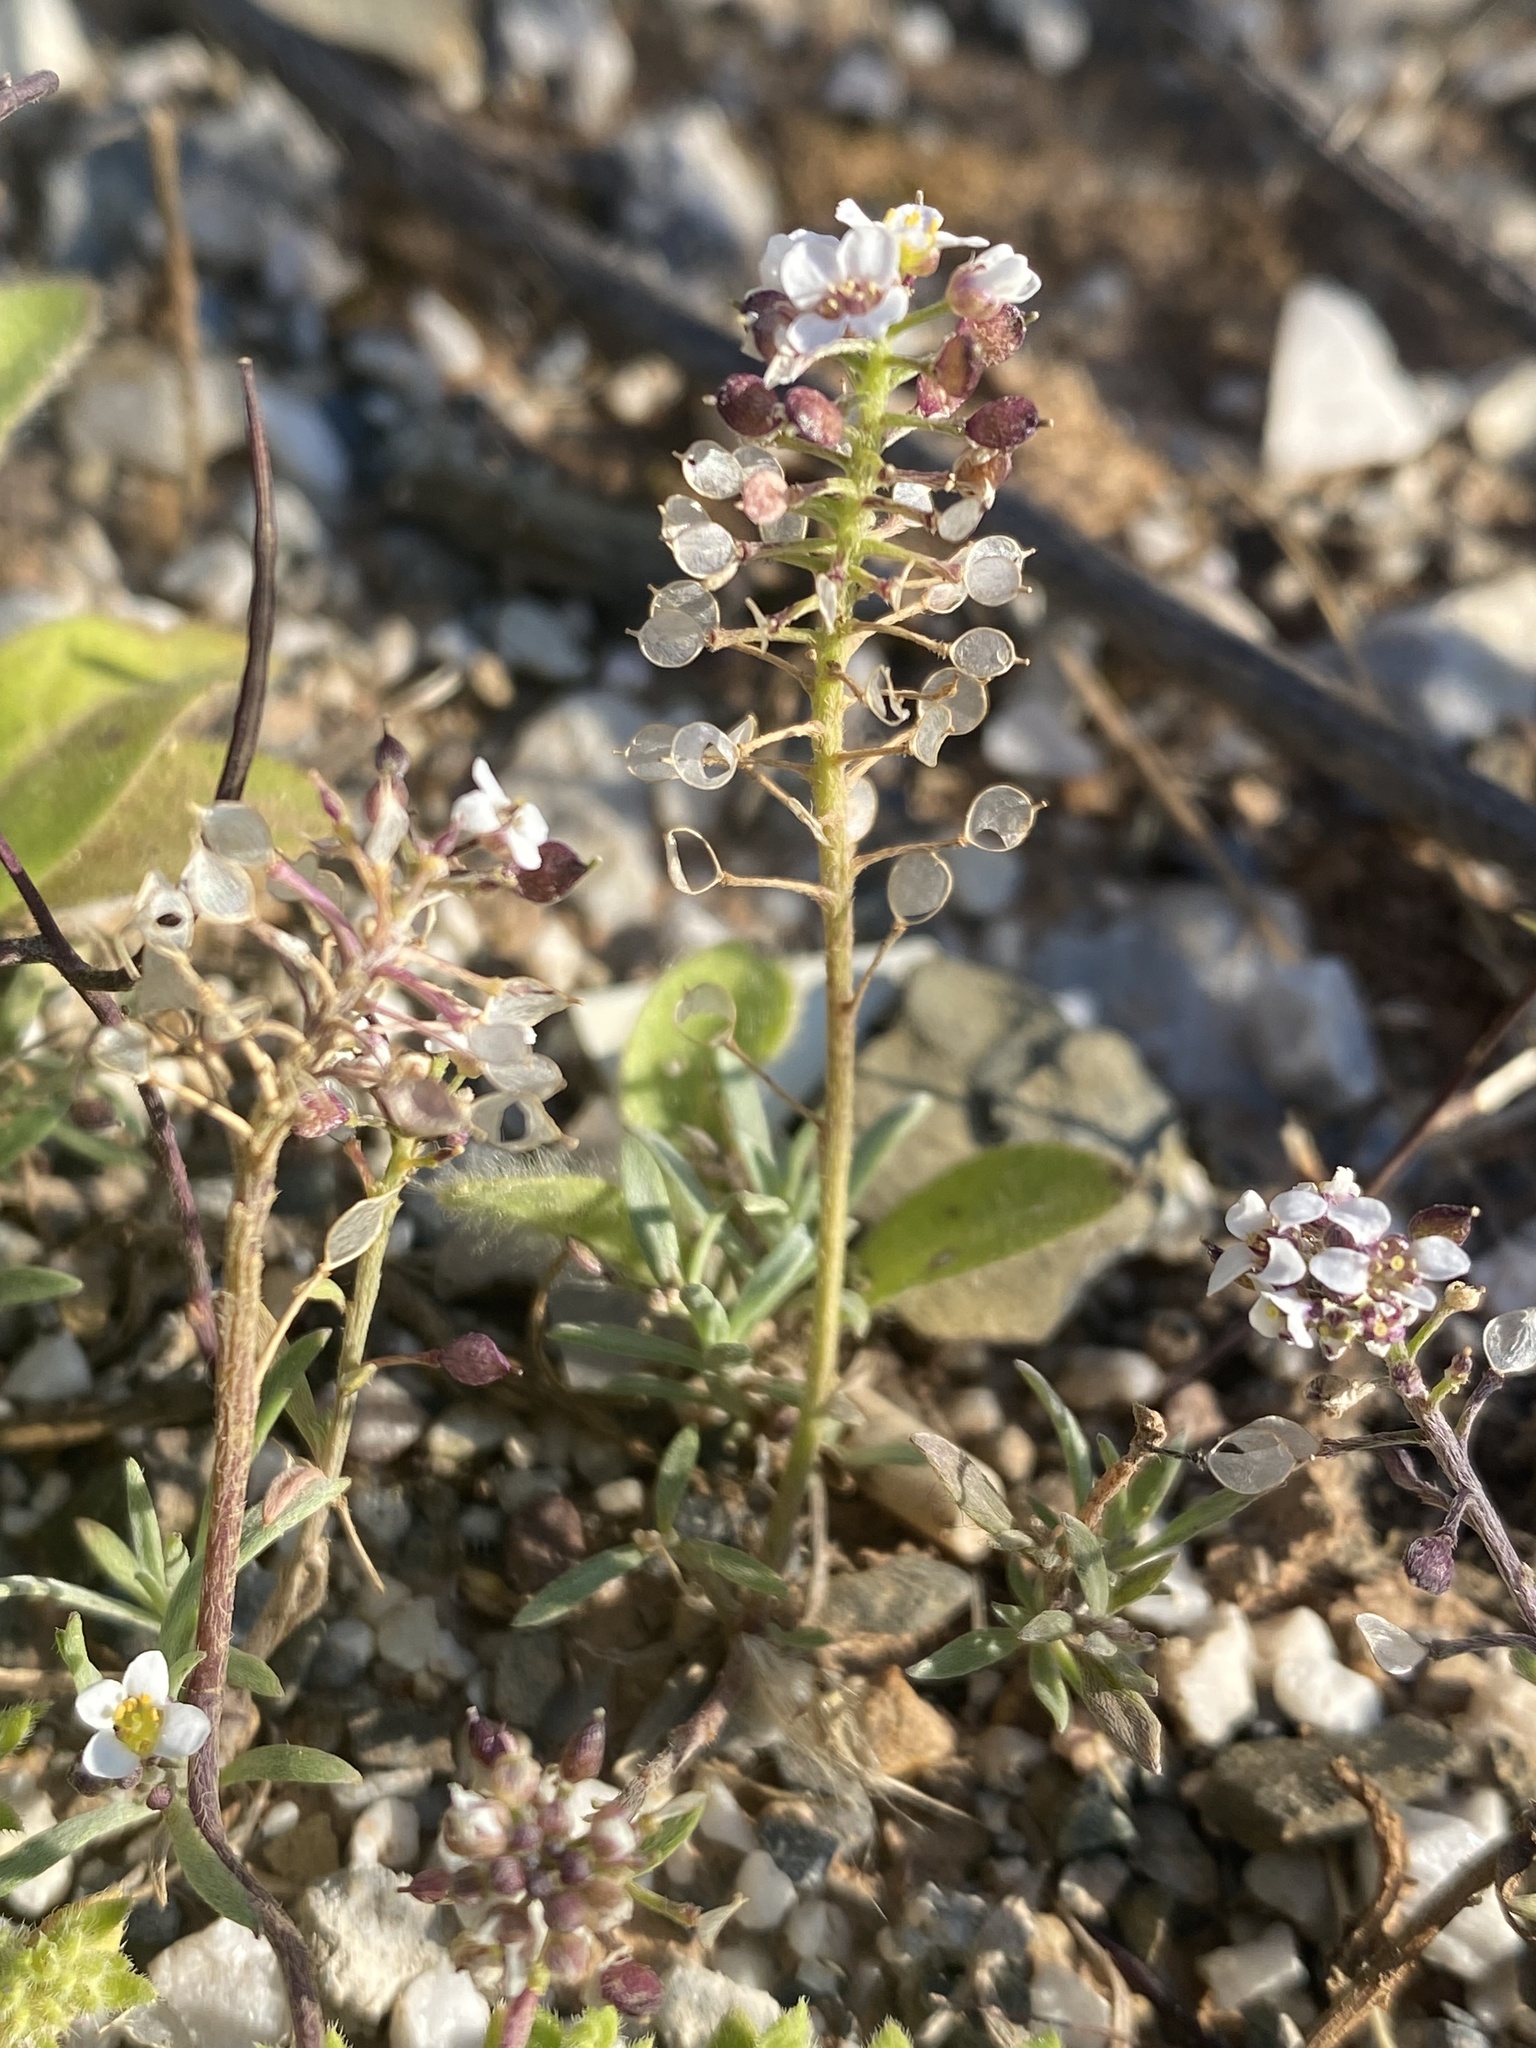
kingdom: Plantae
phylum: Tracheophyta
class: Magnoliopsida
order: Brassicales
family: Brassicaceae
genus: Lobularia
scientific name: Lobularia maritima
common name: Sweet alison
